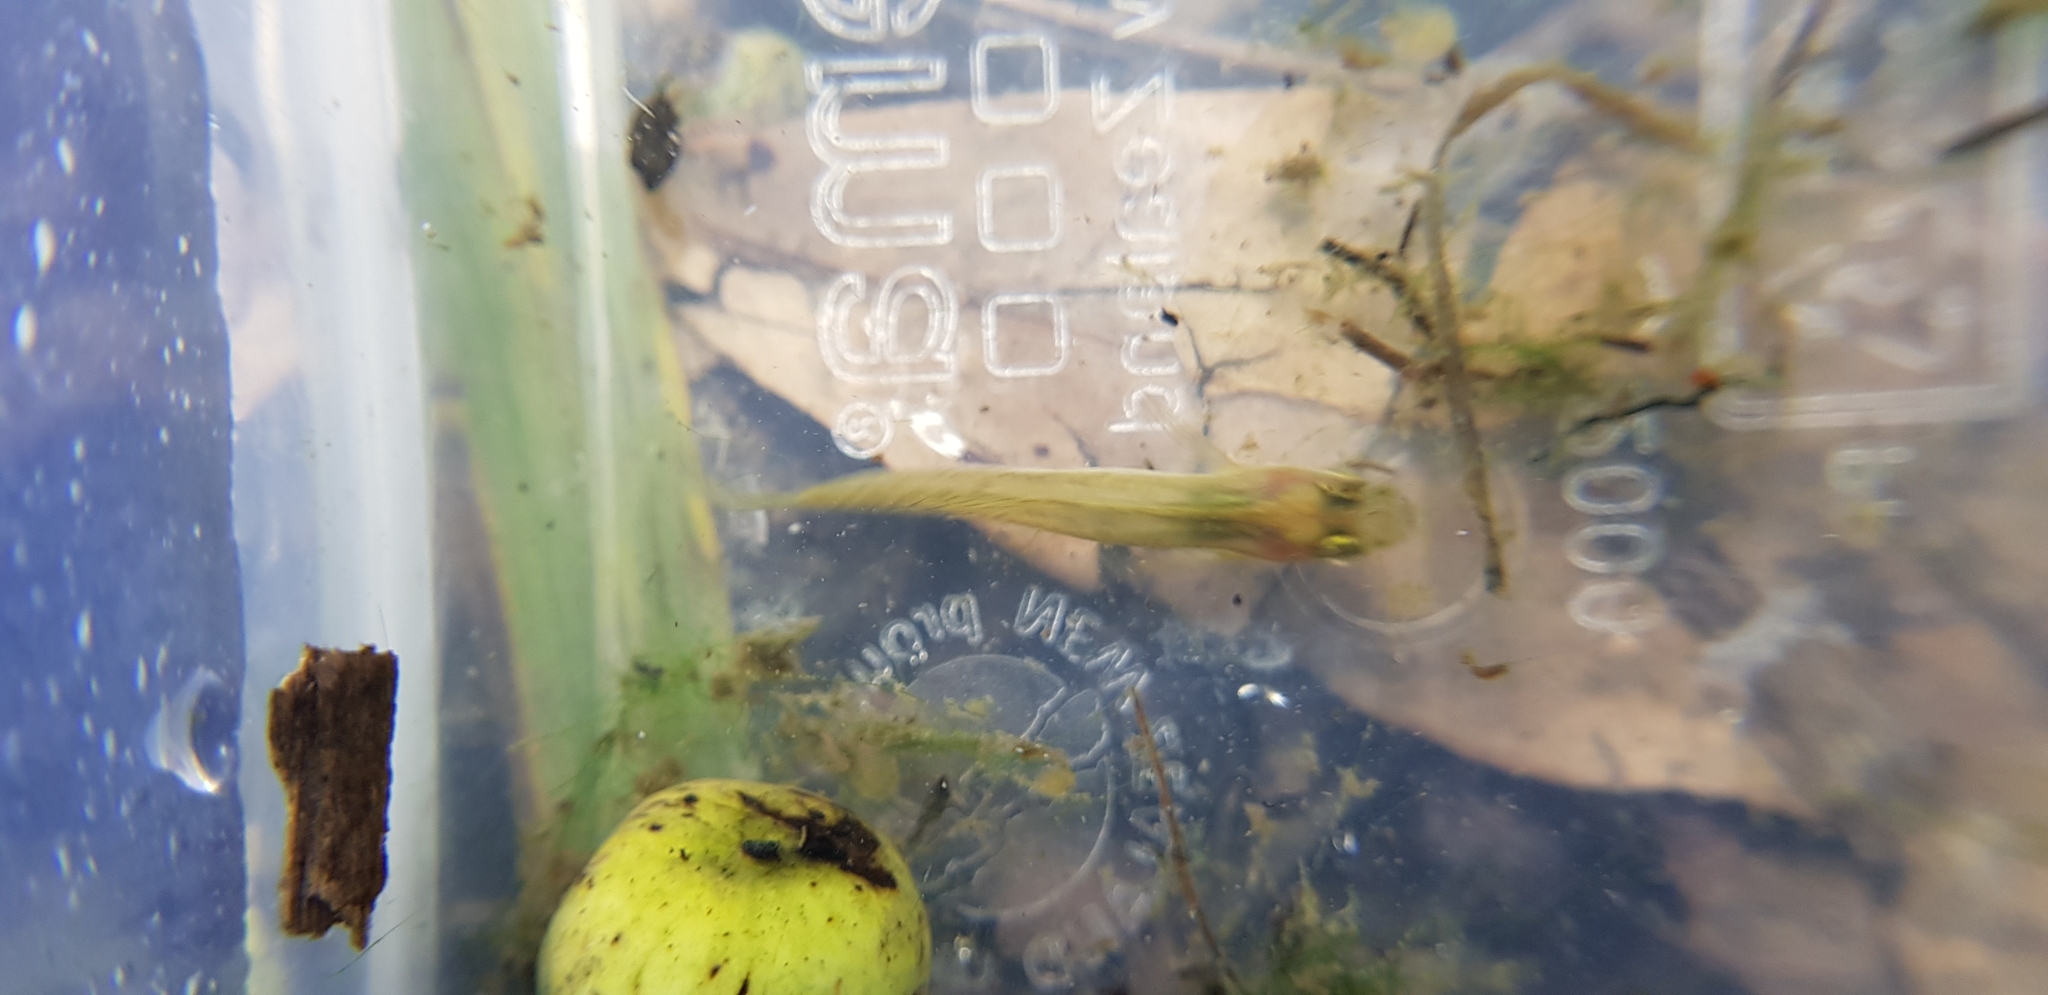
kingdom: Animalia
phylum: Chordata
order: Cyprinodontiformes
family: Poeciliidae
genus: Gambusia
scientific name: Gambusia holbrooki
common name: Eastern mosquitofish
